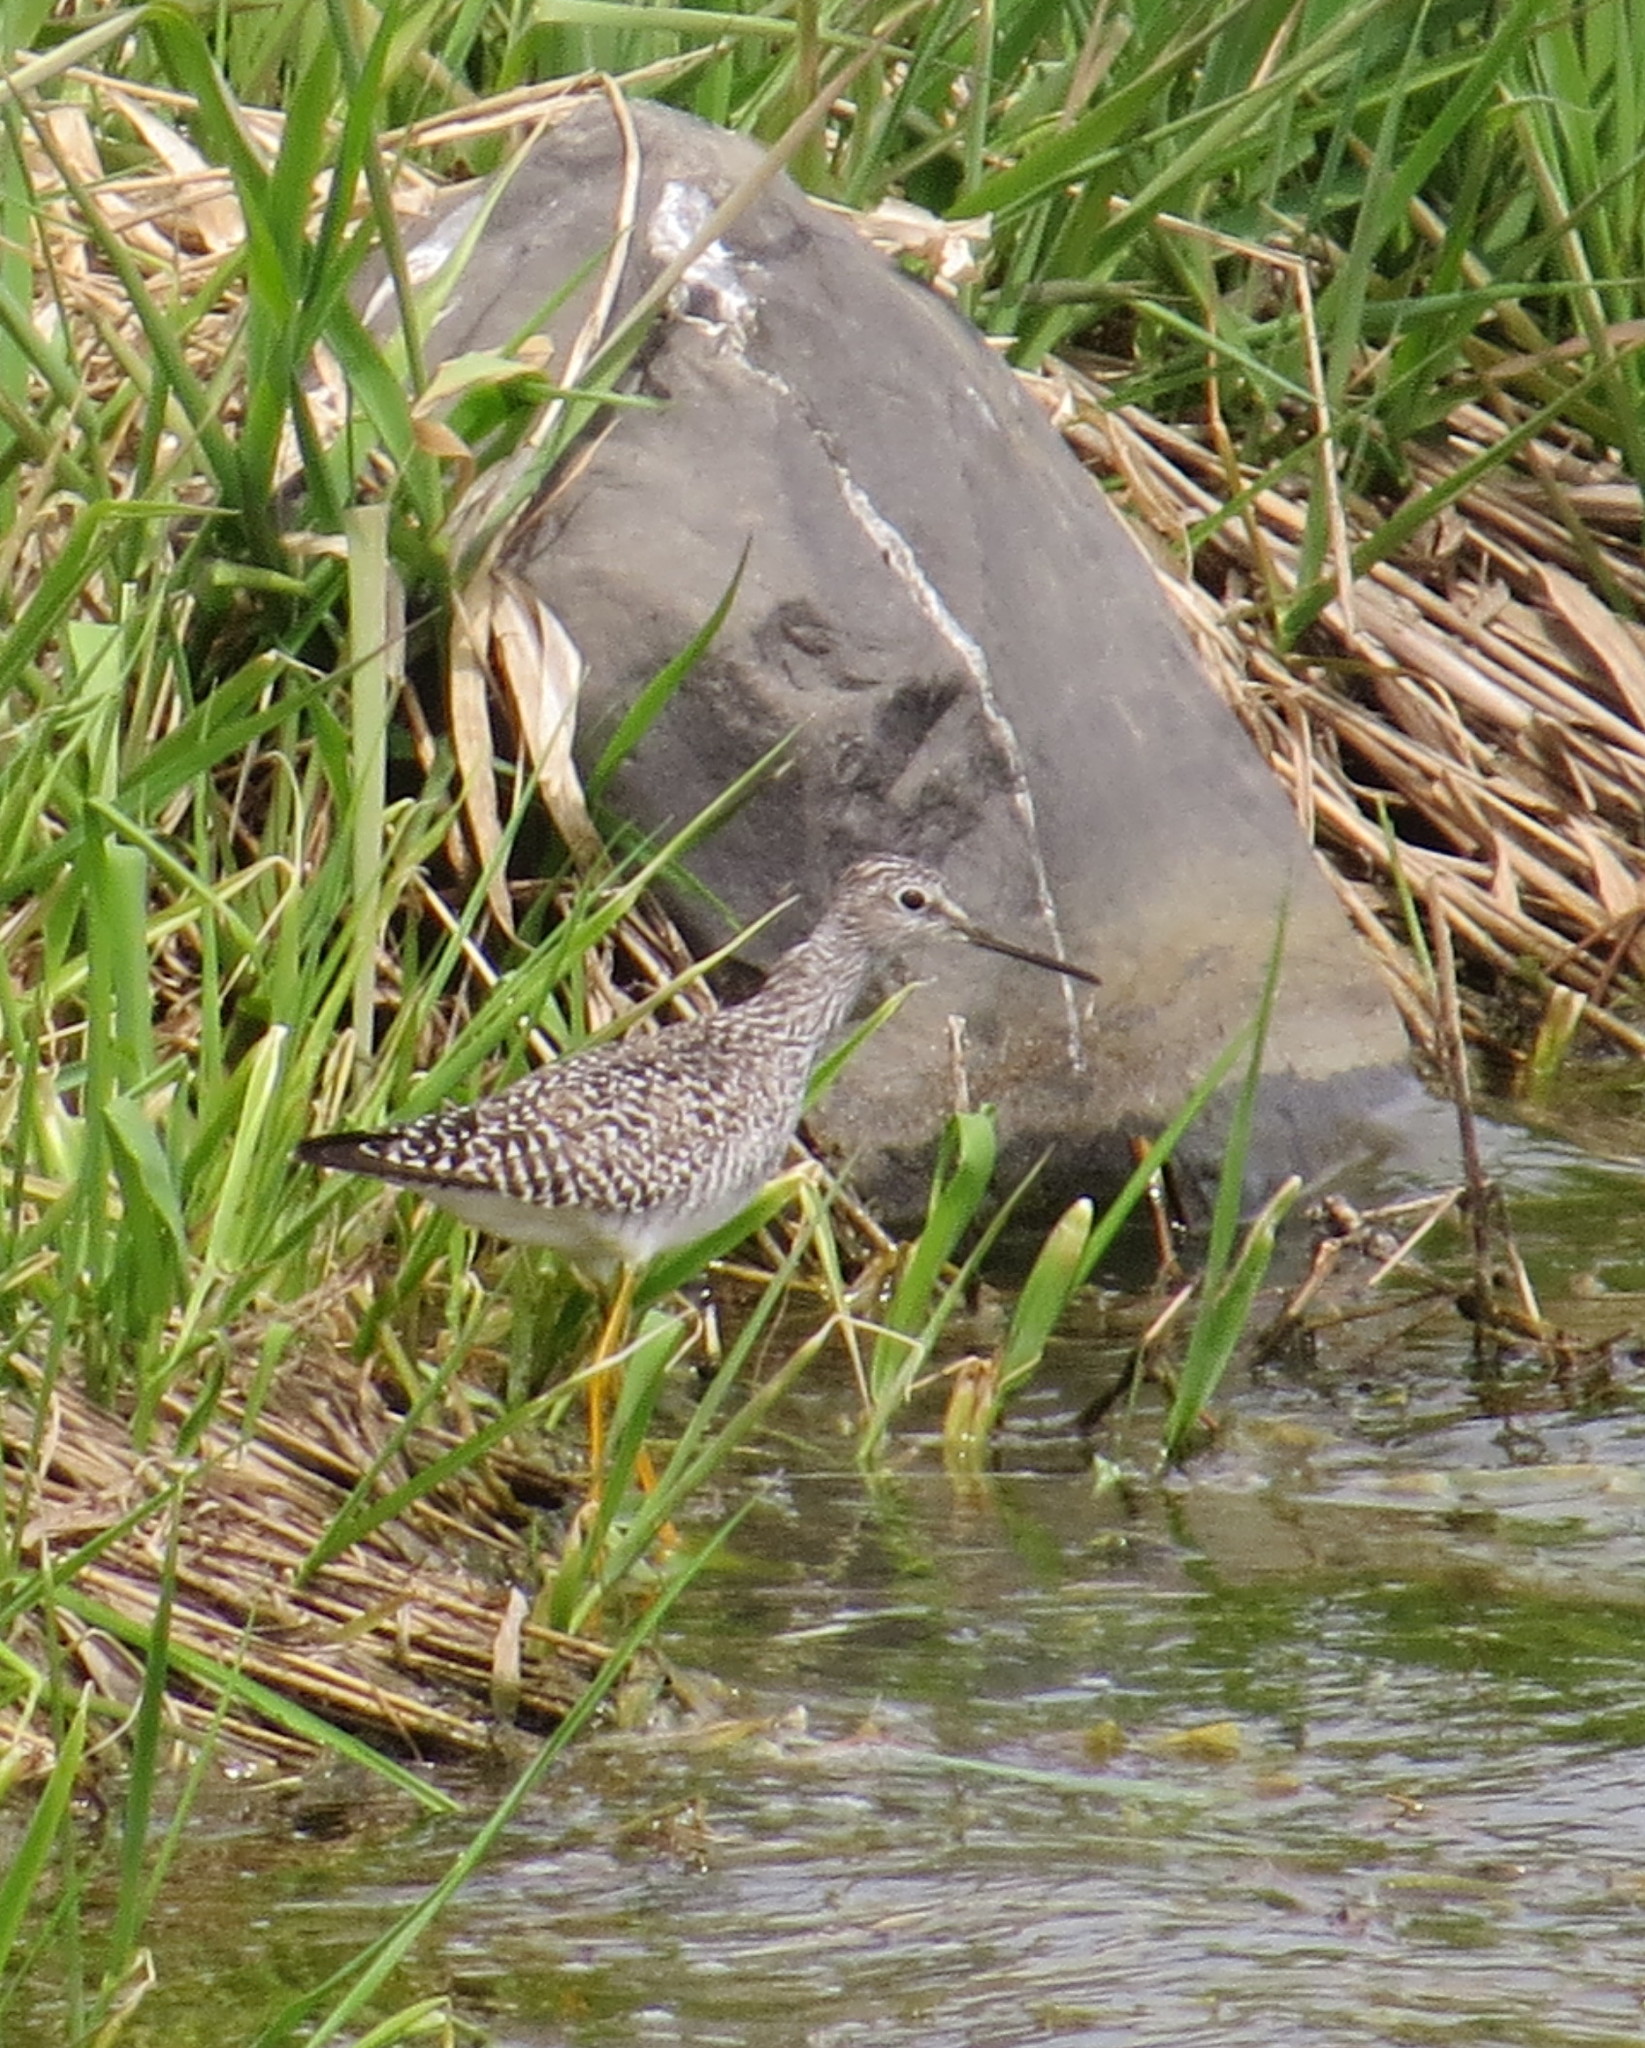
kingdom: Animalia
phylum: Chordata
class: Aves
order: Charadriiformes
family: Scolopacidae
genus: Tringa
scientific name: Tringa flavipes
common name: Lesser yellowlegs
